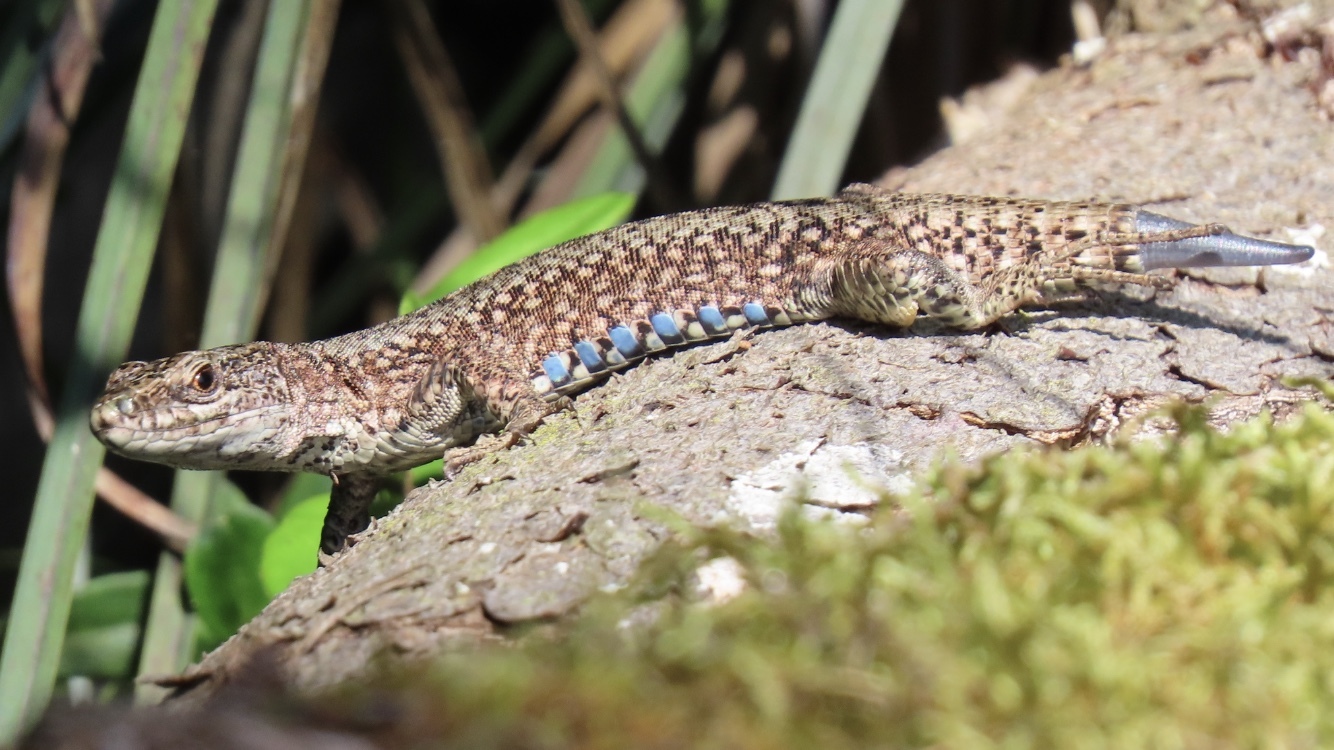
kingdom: Animalia
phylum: Chordata
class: Squamata
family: Lacertidae
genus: Podarcis
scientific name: Podarcis muralis
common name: Common wall lizard
